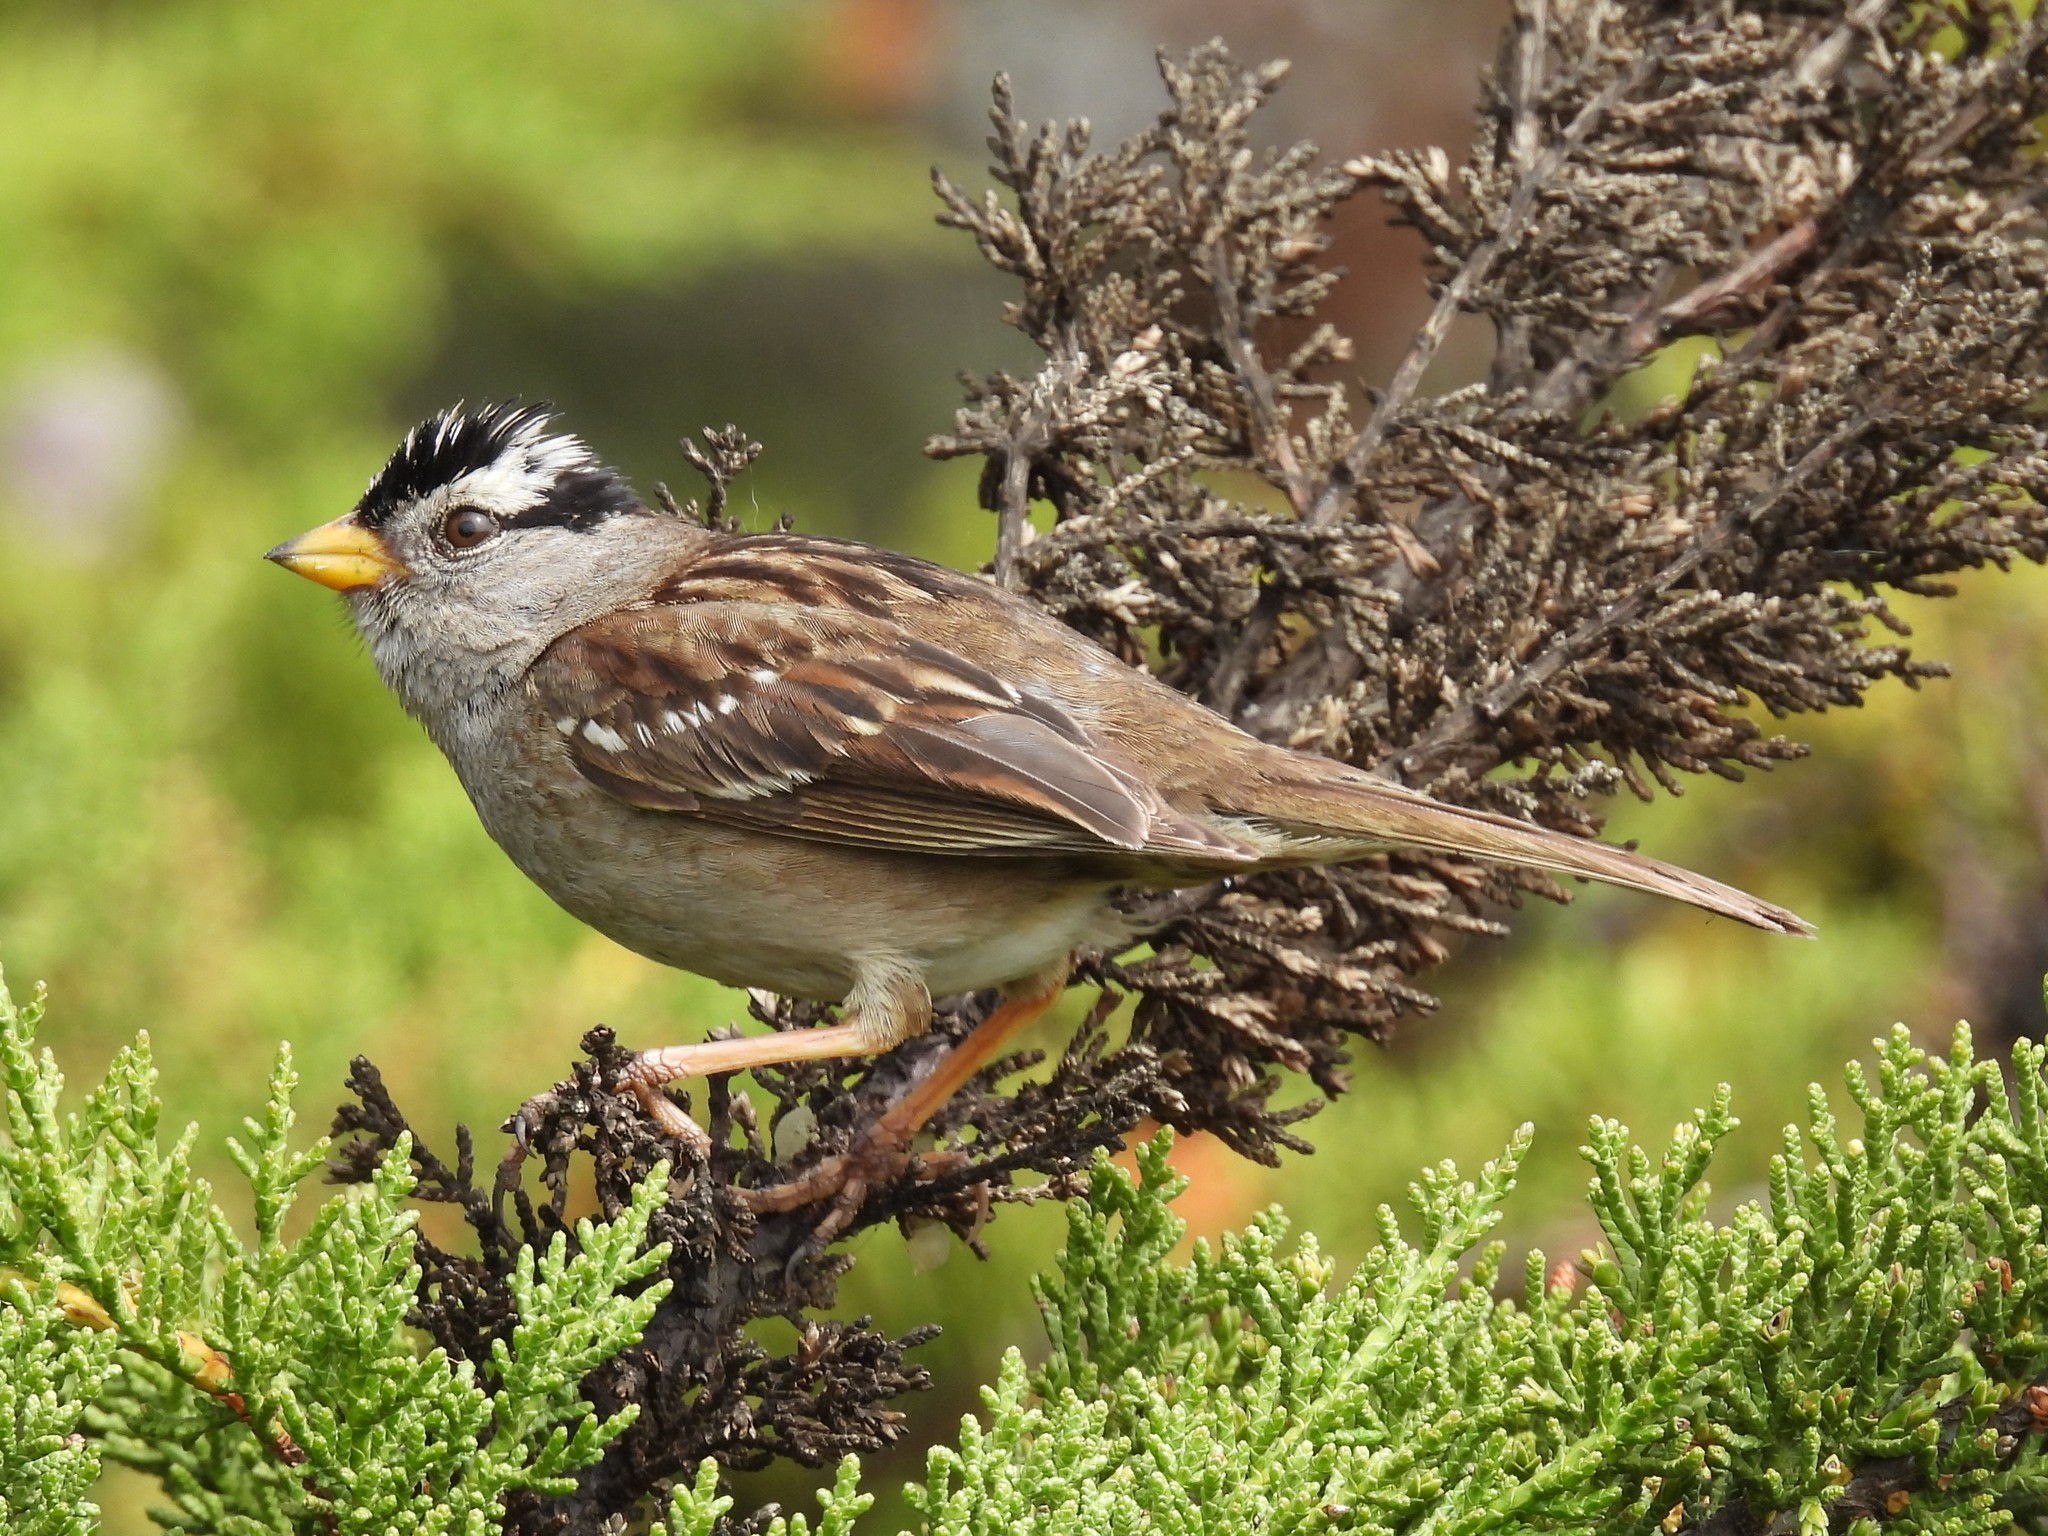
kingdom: Animalia
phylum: Chordata
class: Aves
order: Passeriformes
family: Passerellidae
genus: Zonotrichia
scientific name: Zonotrichia leucophrys
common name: White-crowned sparrow
